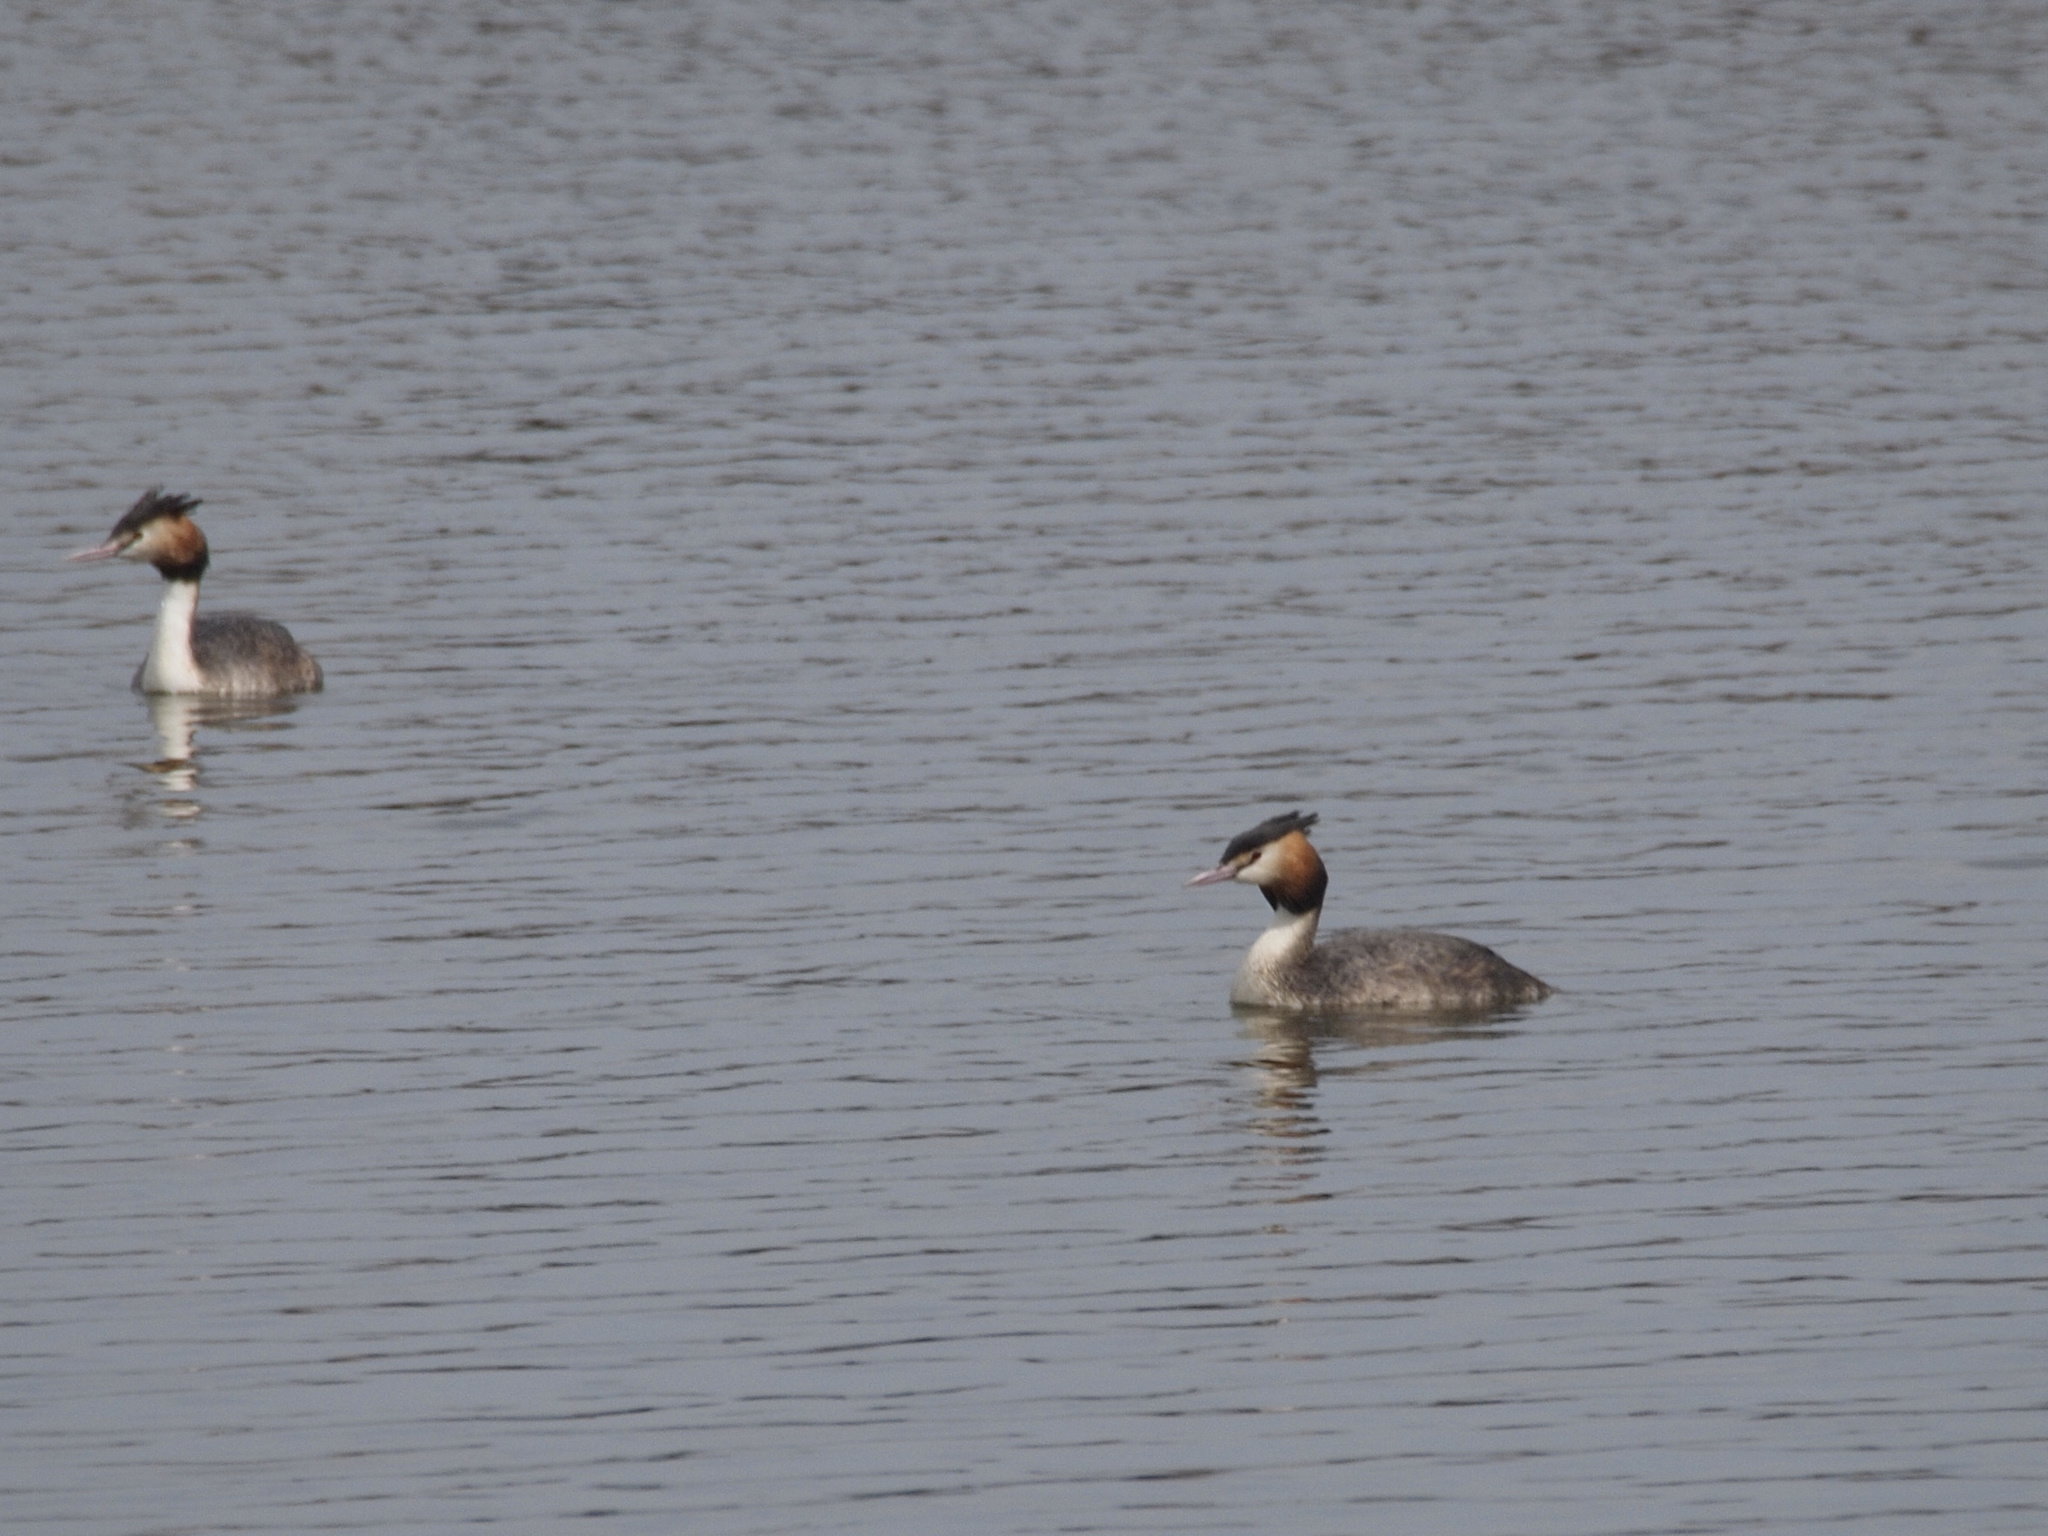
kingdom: Animalia
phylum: Chordata
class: Aves
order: Podicipediformes
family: Podicipedidae
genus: Podiceps
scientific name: Podiceps cristatus
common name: Great crested grebe
